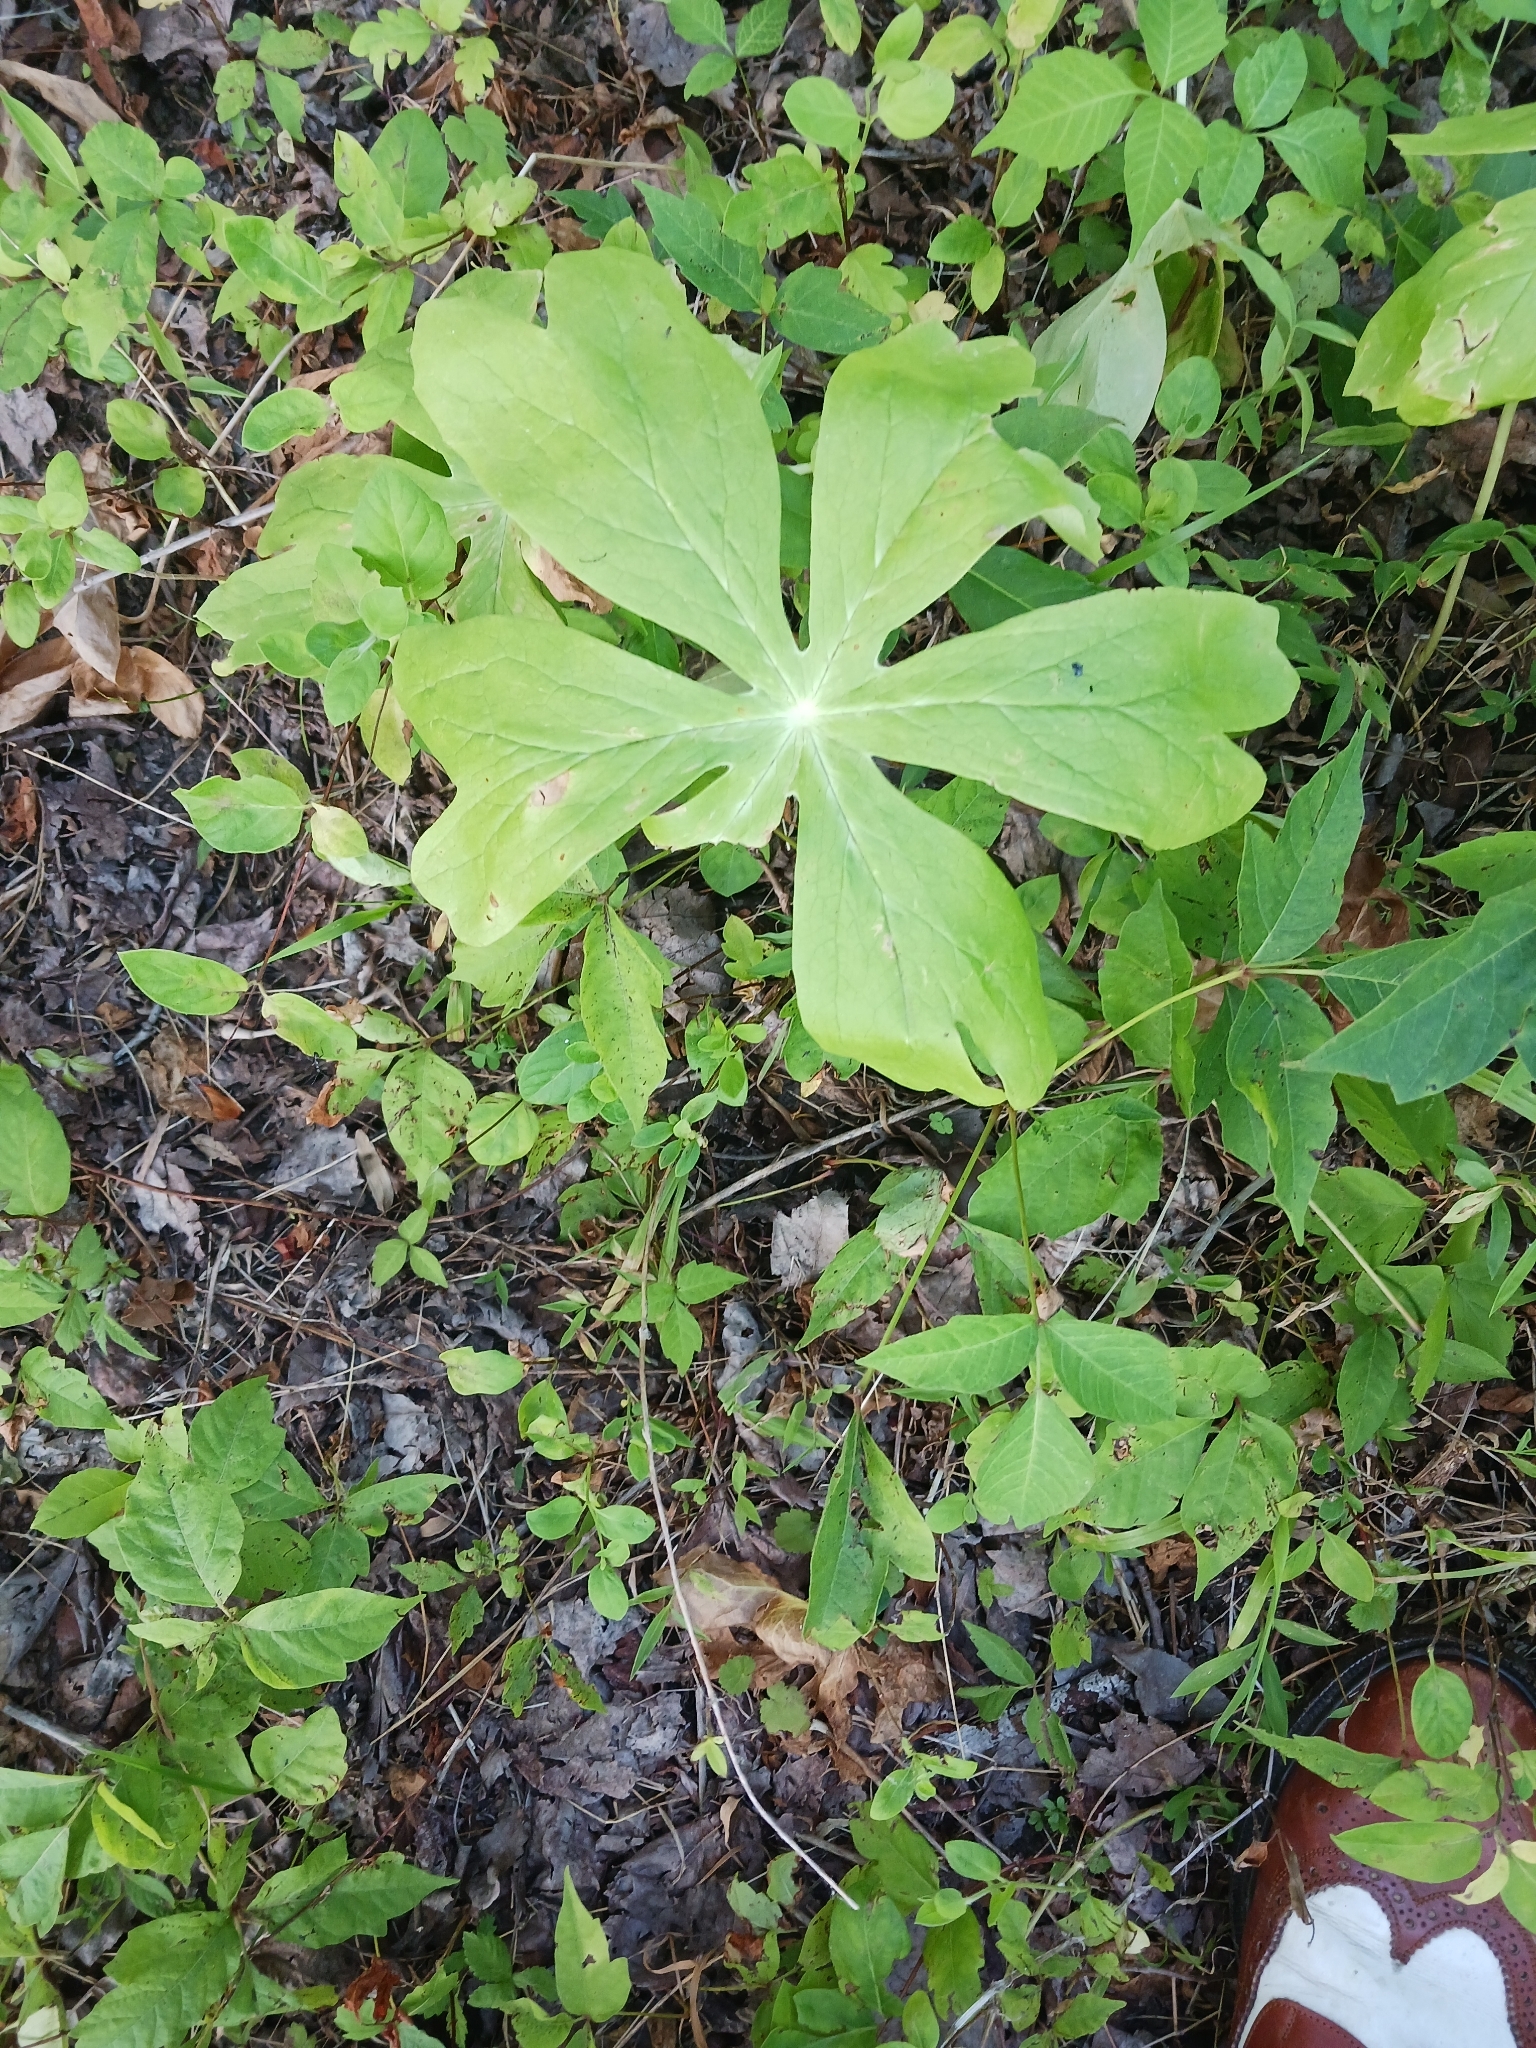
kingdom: Plantae
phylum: Tracheophyta
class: Magnoliopsida
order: Ranunculales
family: Berberidaceae
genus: Podophyllum
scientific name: Podophyllum peltatum
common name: Wild mandrake
